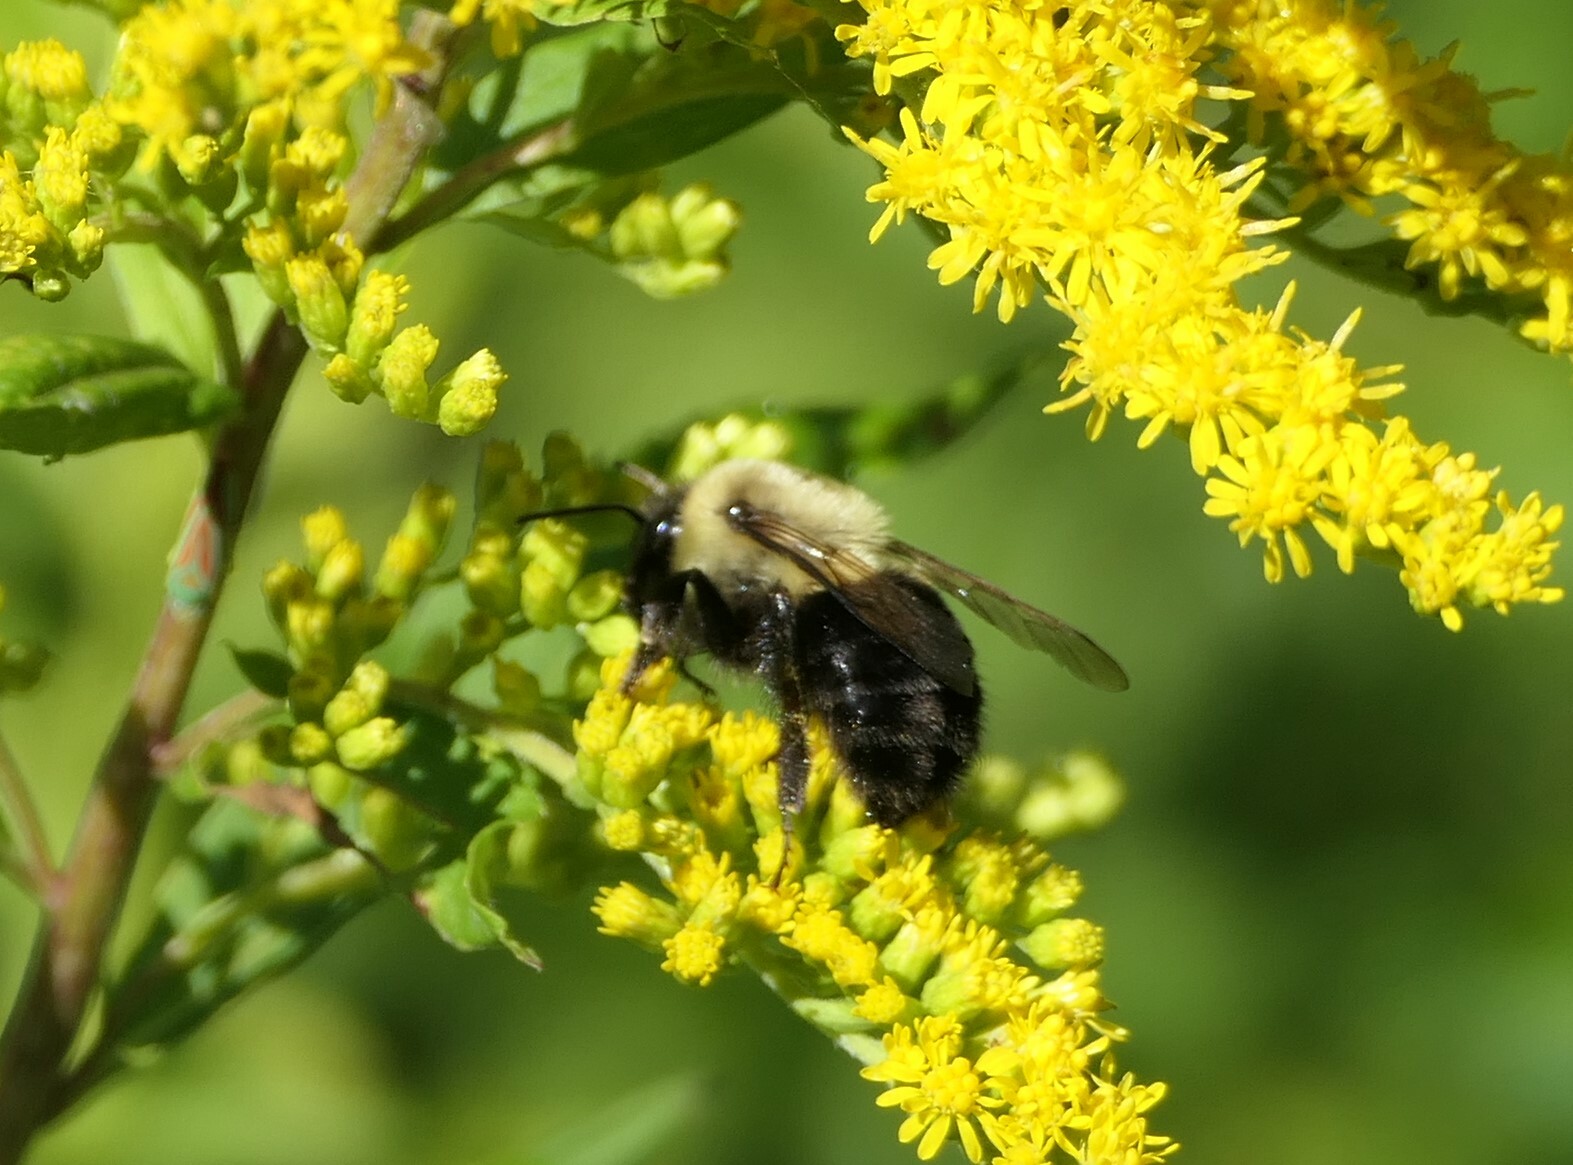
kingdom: Animalia
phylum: Arthropoda
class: Insecta
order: Hymenoptera
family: Apidae
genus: Bombus
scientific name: Bombus impatiens
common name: Common eastern bumble bee
